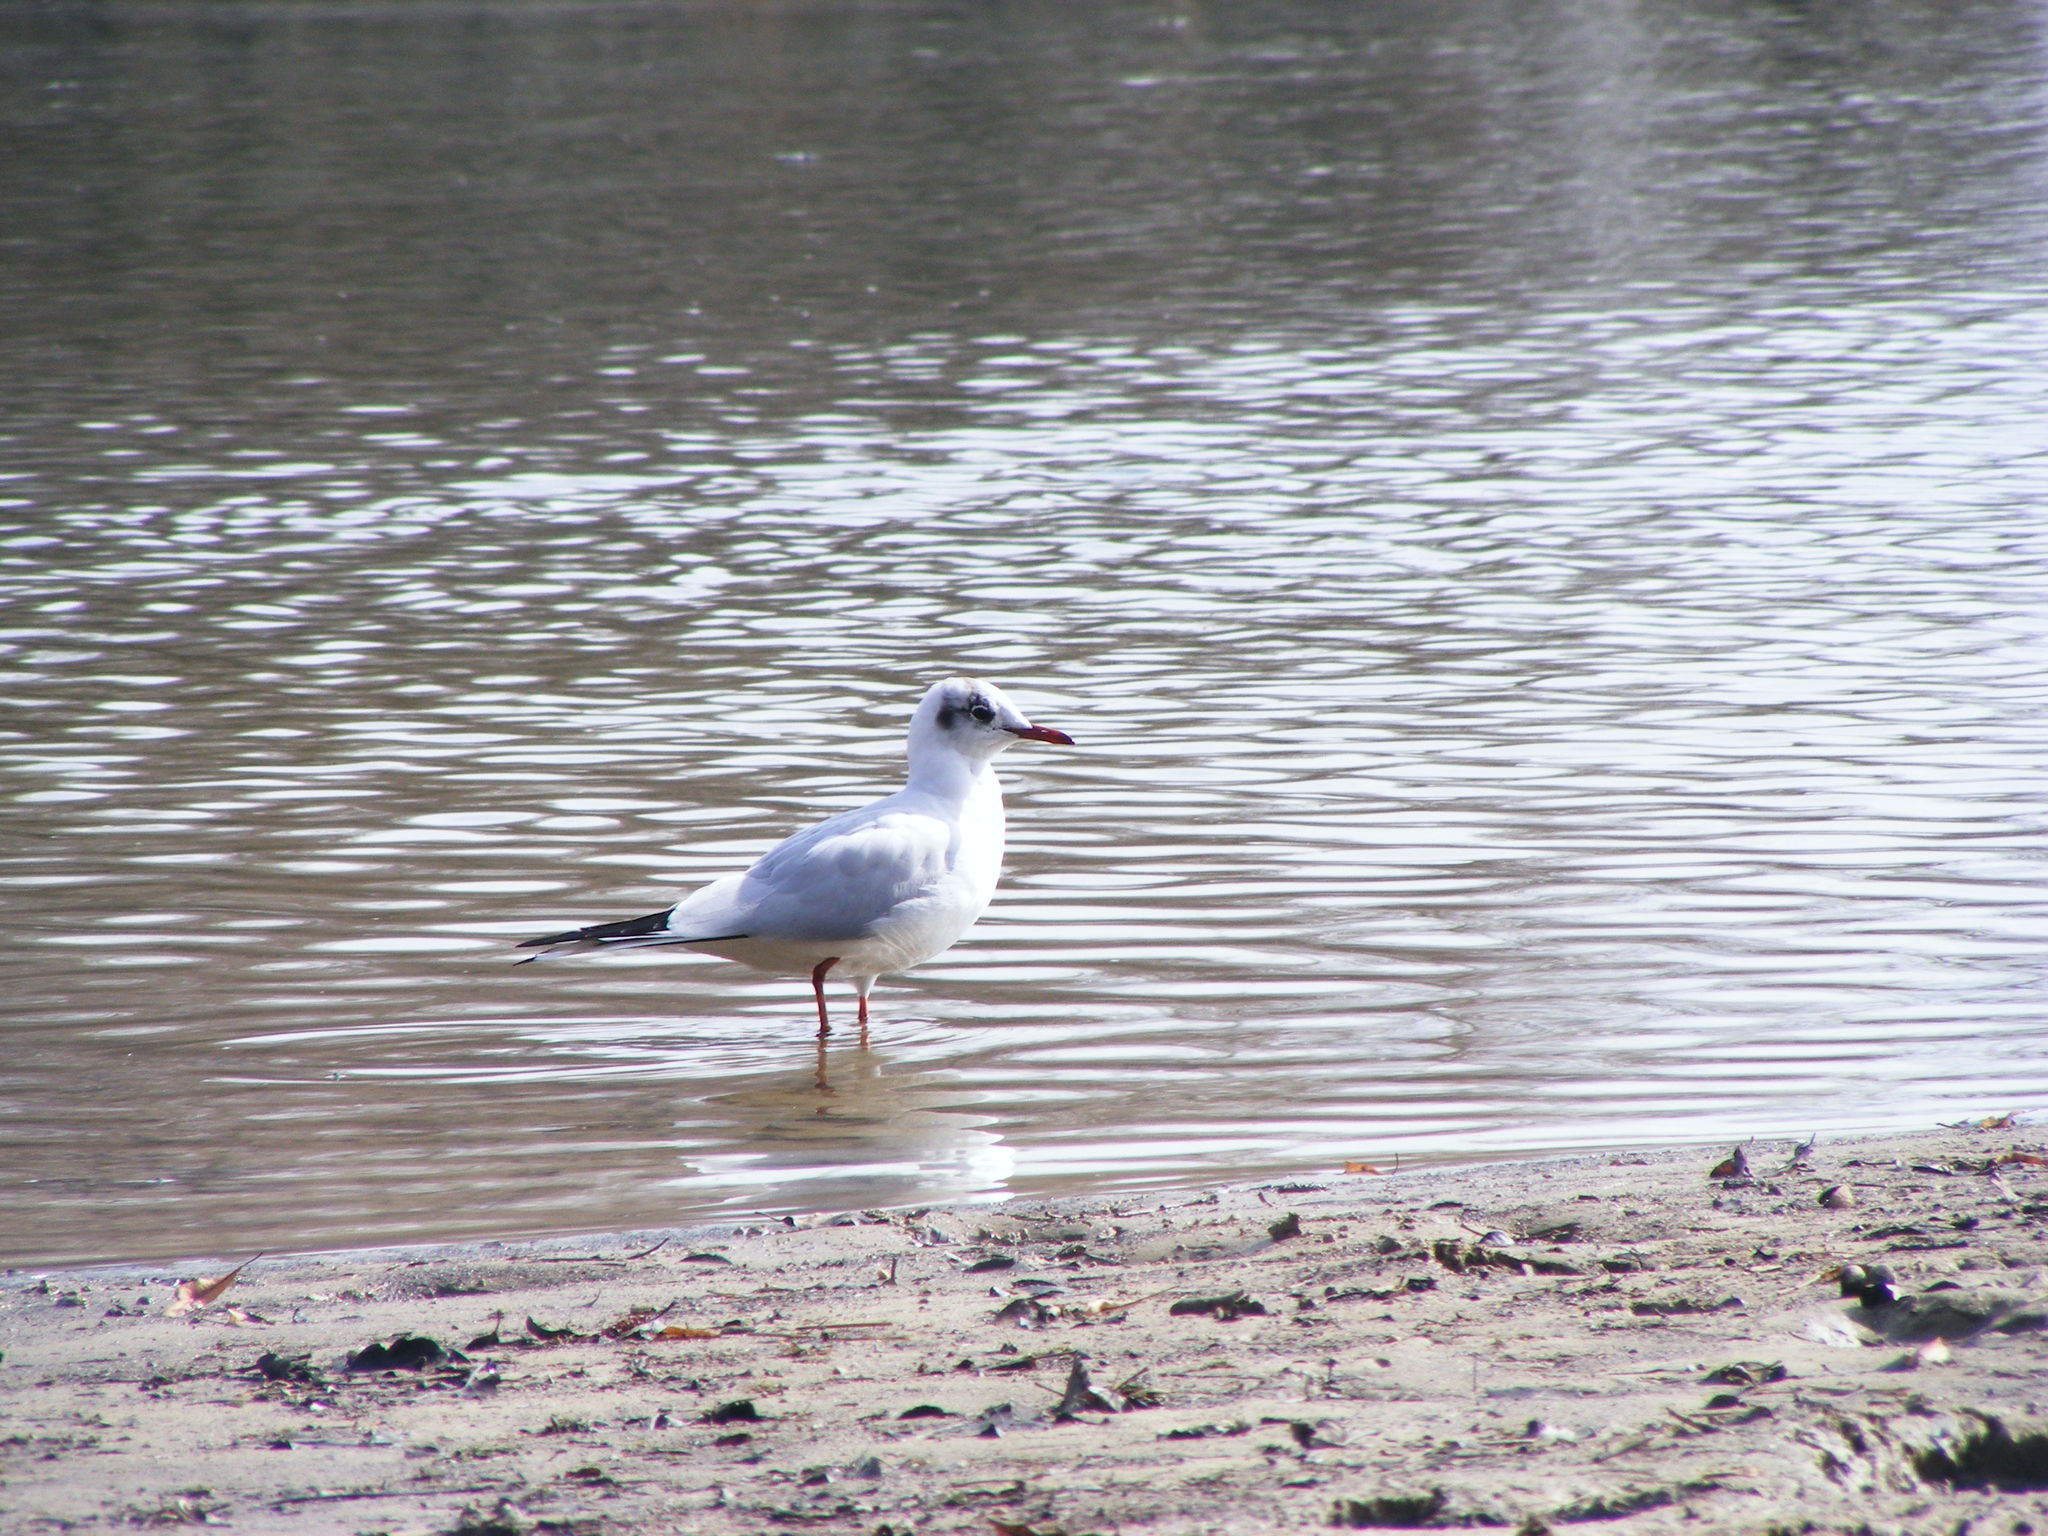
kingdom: Animalia
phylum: Chordata
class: Aves
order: Charadriiformes
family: Laridae
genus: Chroicocephalus
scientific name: Chroicocephalus ridibundus
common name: Black-headed gull
